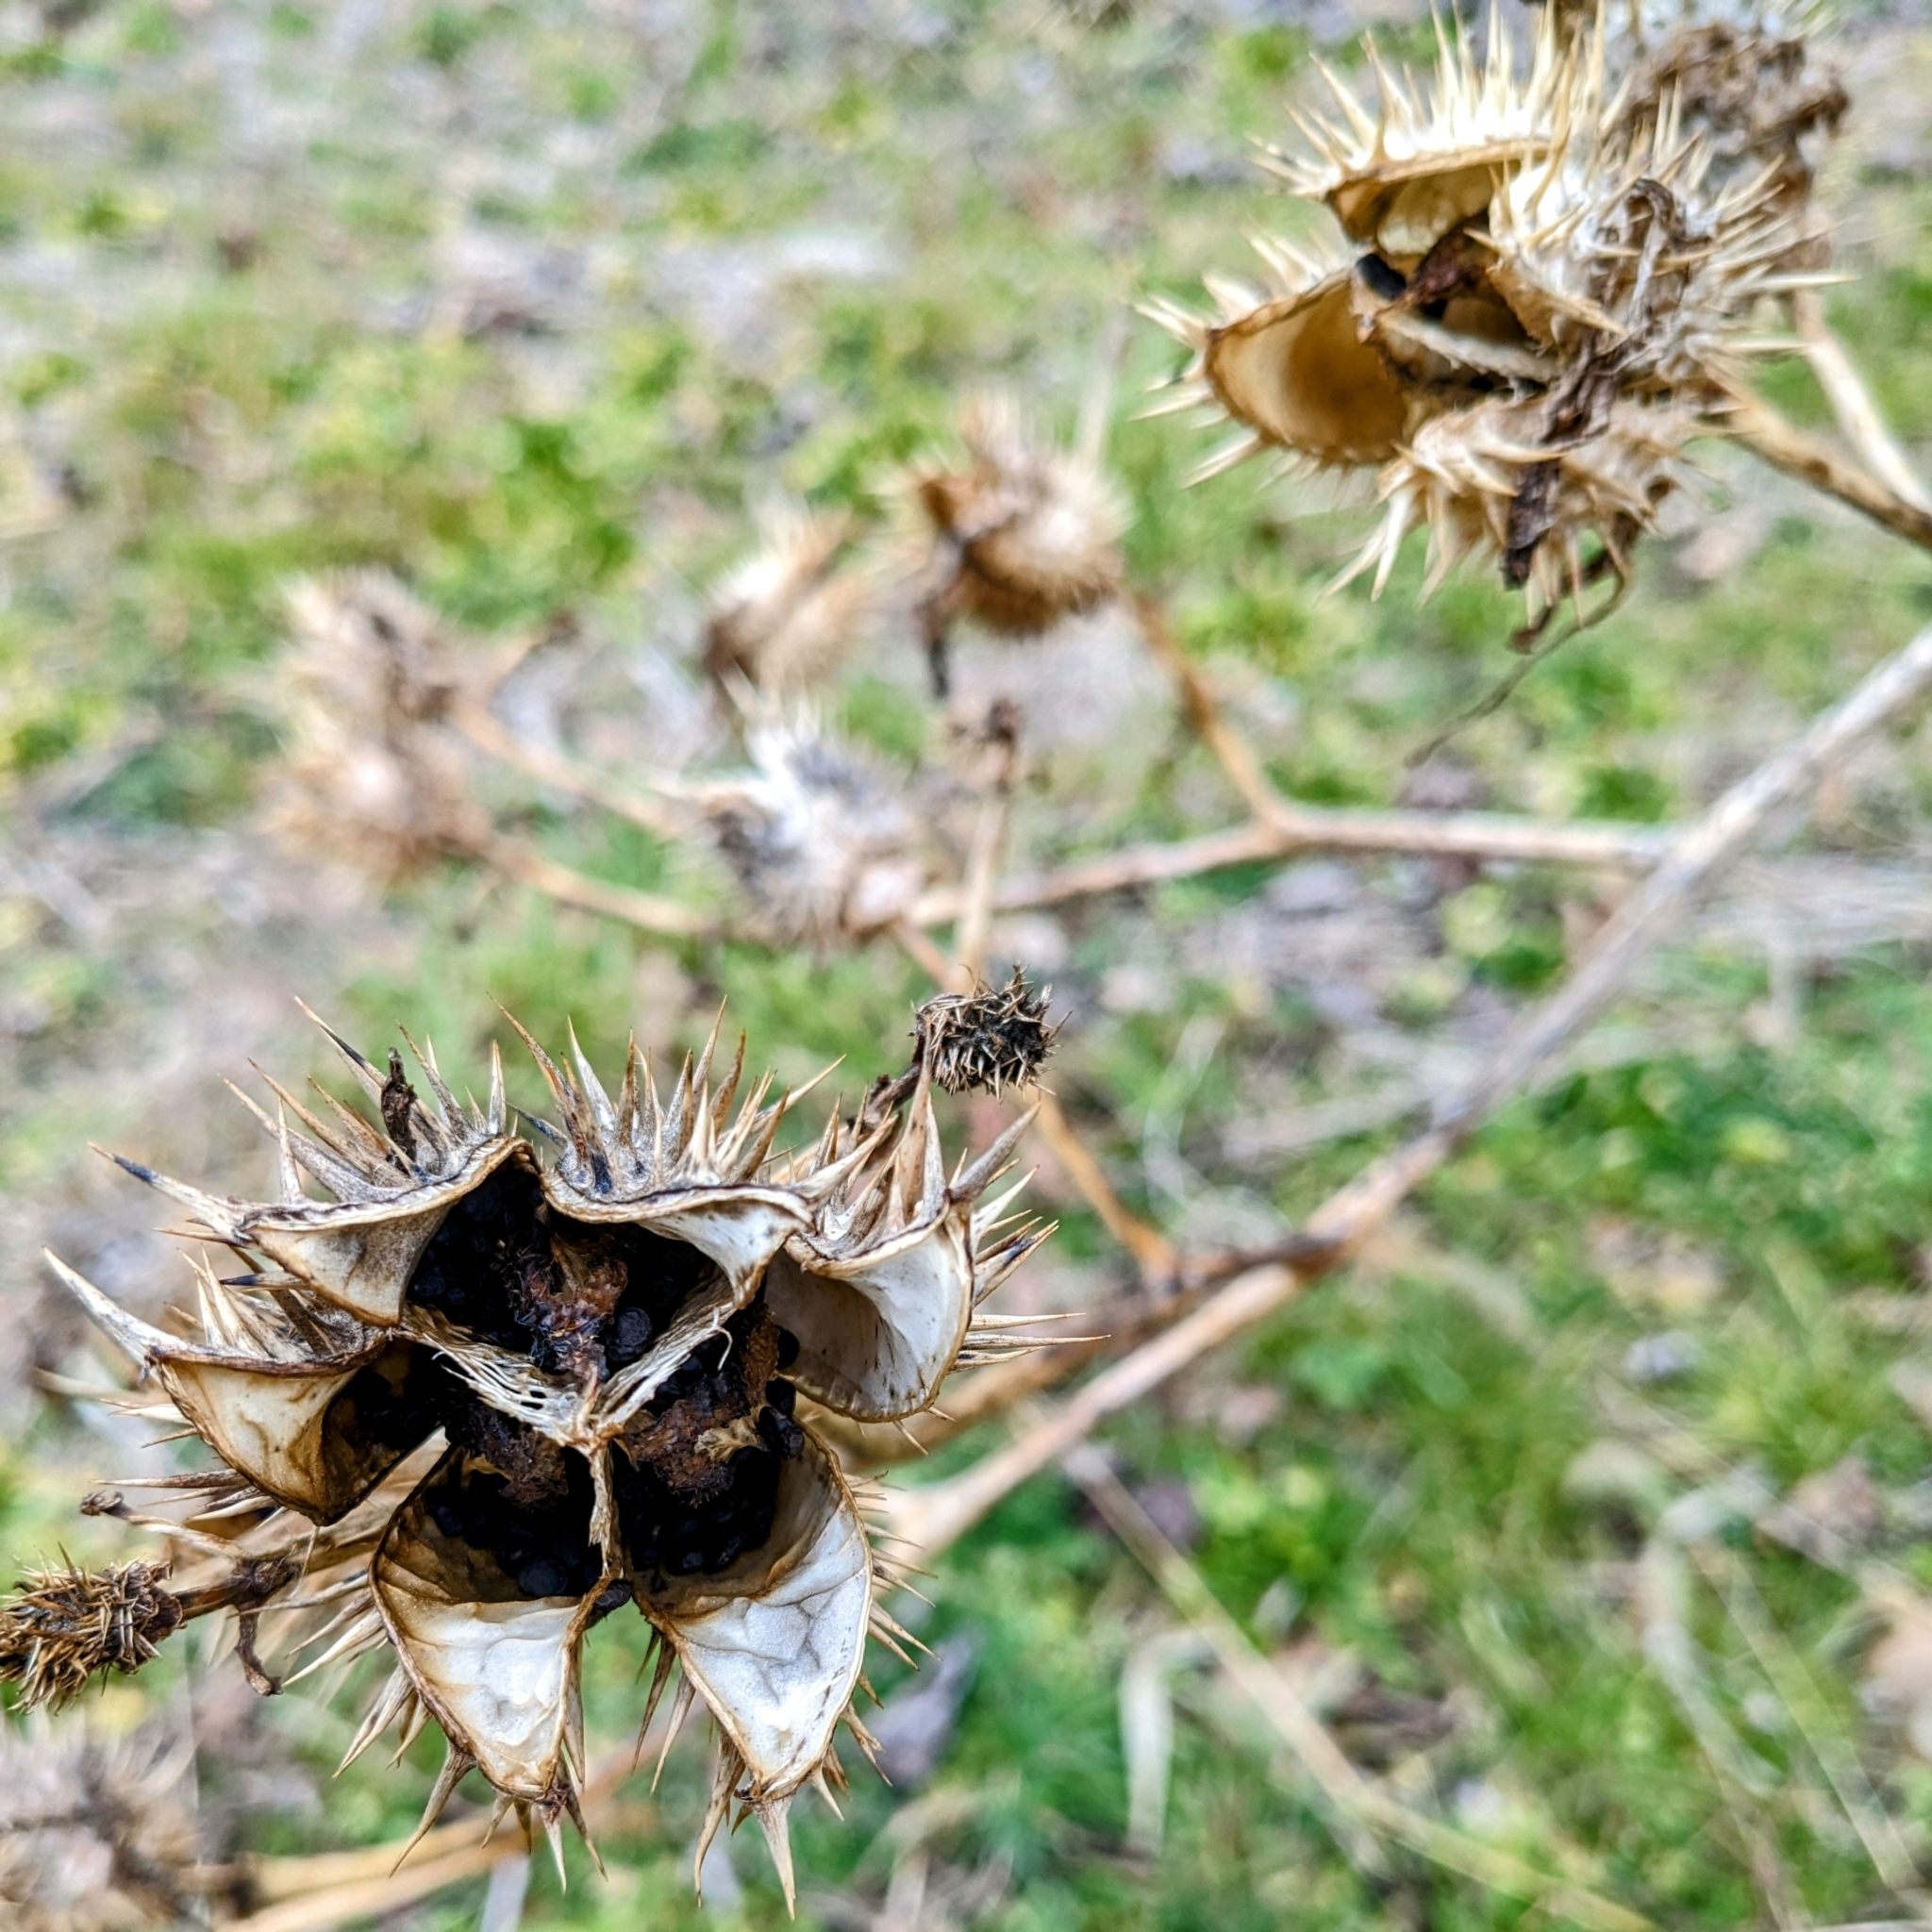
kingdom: Plantae
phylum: Tracheophyta
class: Magnoliopsida
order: Solanales
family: Solanaceae
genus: Datura
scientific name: Datura stramonium
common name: Thorn-apple
